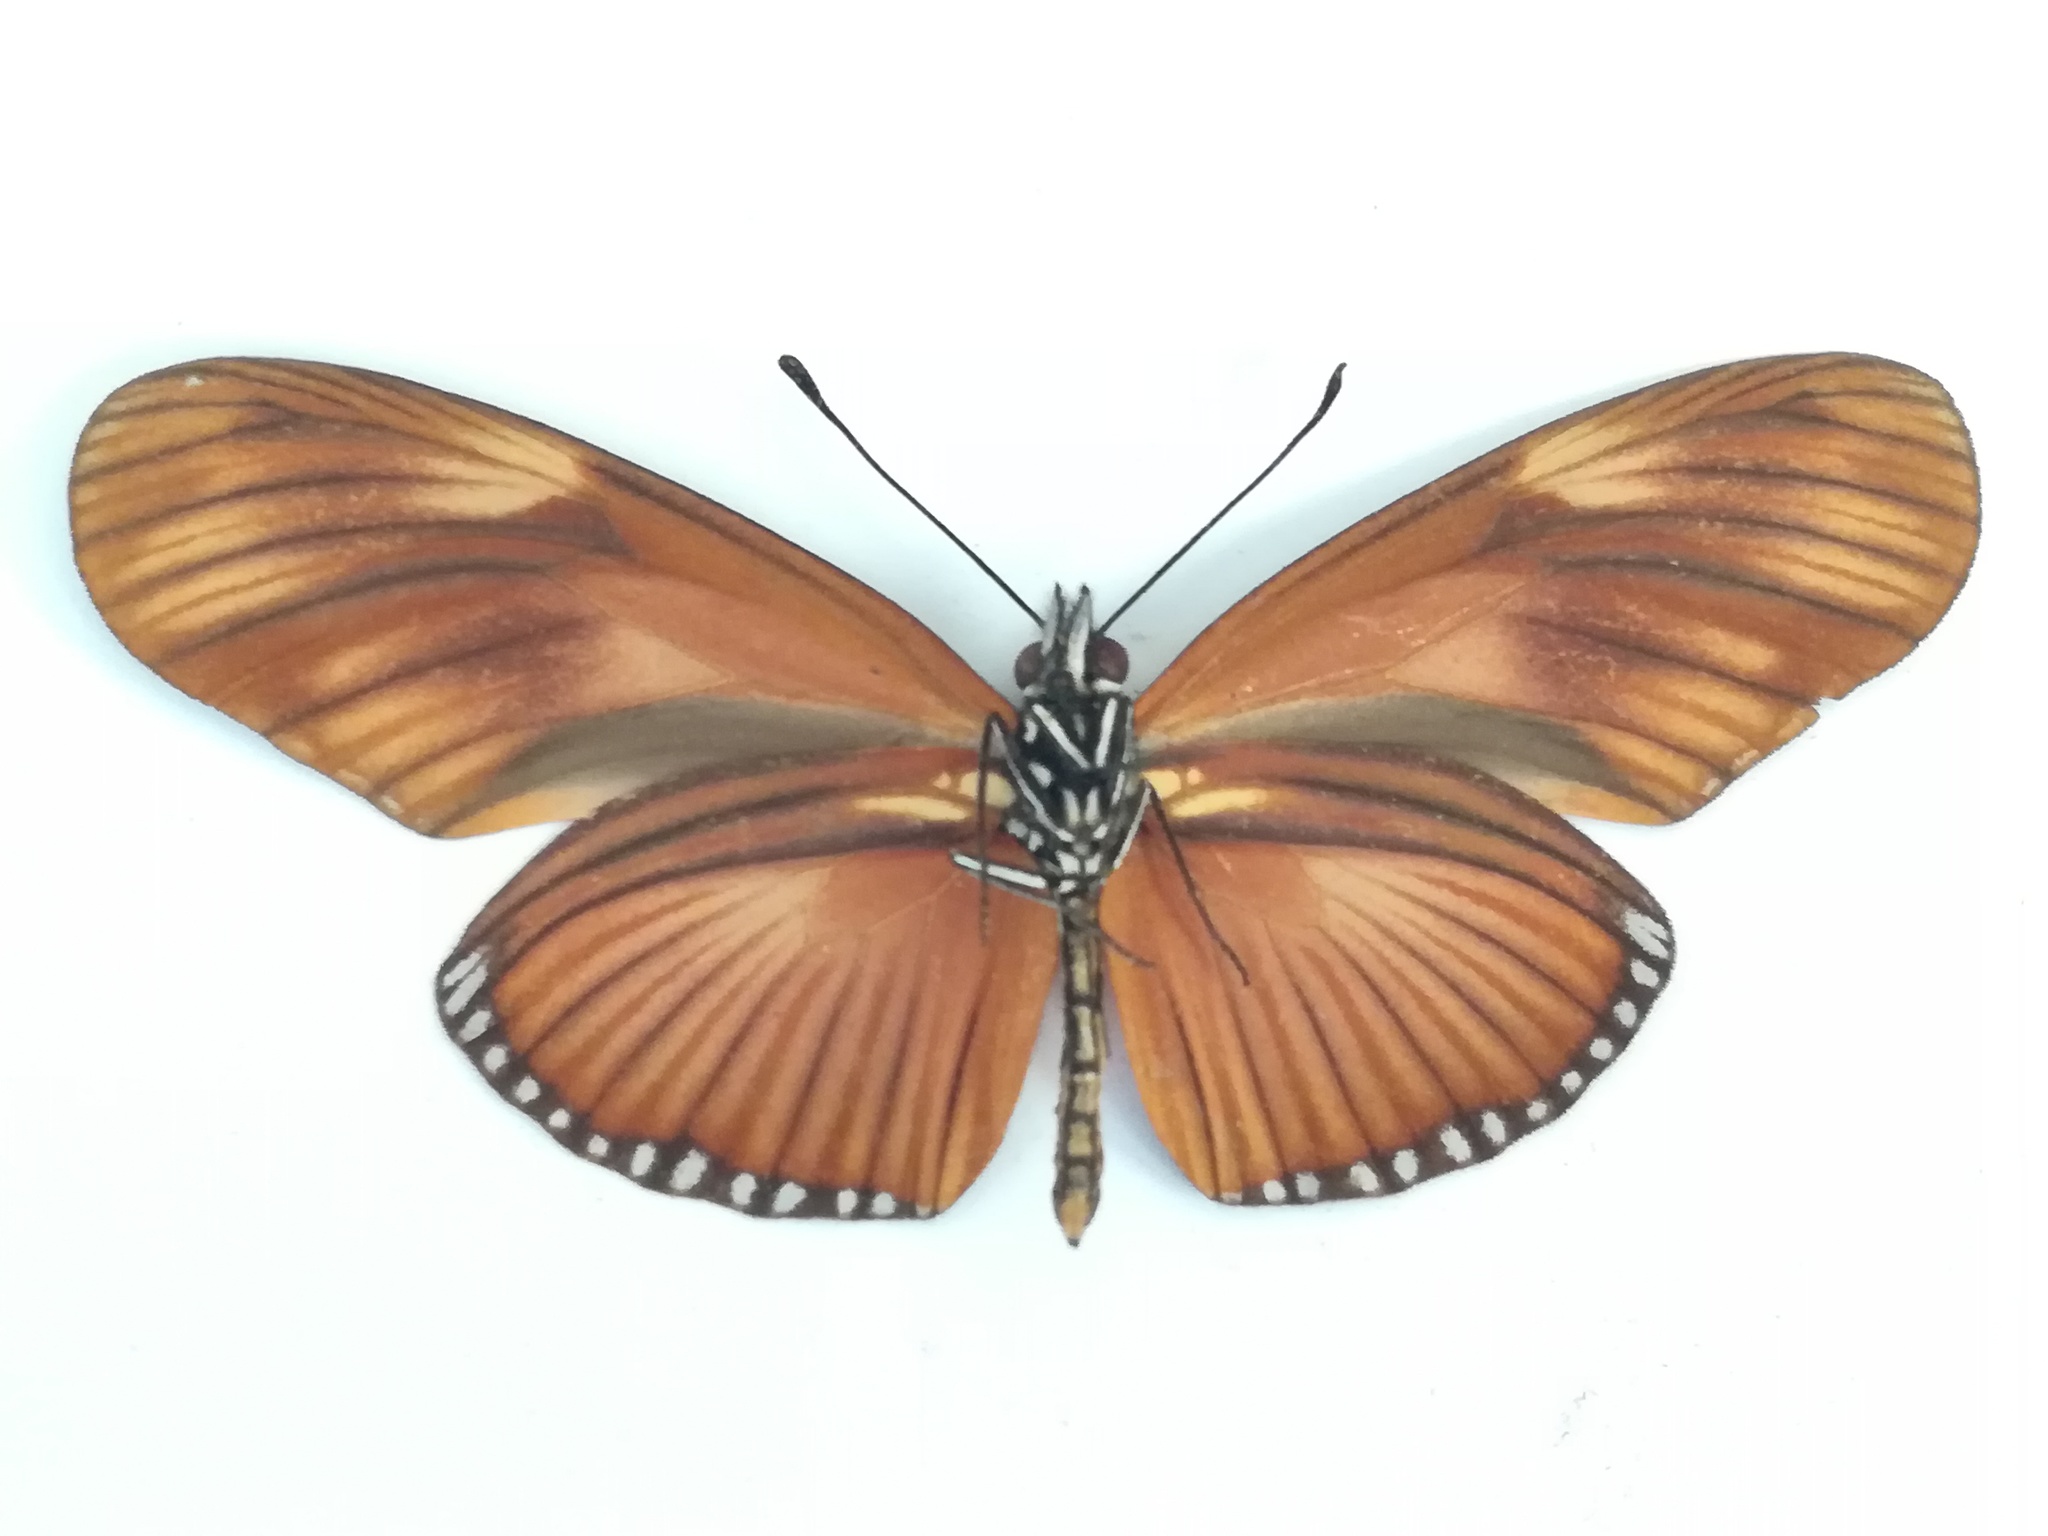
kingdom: Animalia
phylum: Arthropoda
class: Insecta
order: Lepidoptera
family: Nymphalidae
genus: Eueides
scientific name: Eueides lineata
